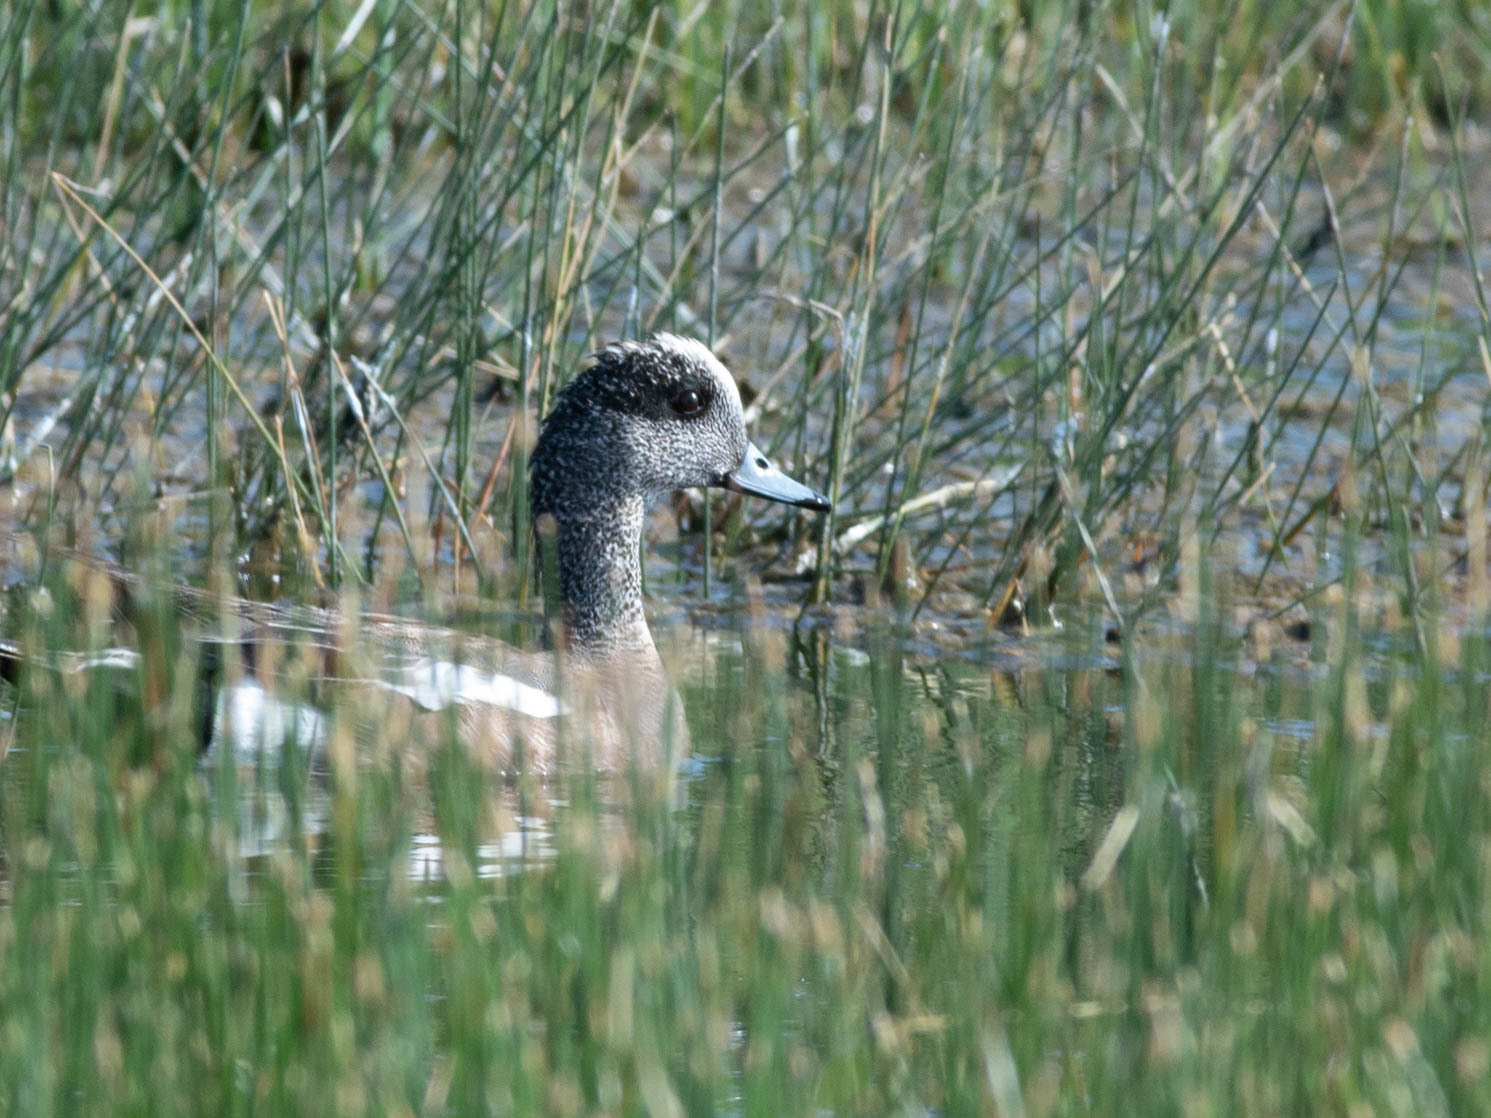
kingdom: Animalia
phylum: Chordata
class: Aves
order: Anseriformes
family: Anatidae
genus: Mareca
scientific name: Mareca americana
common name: American wigeon
